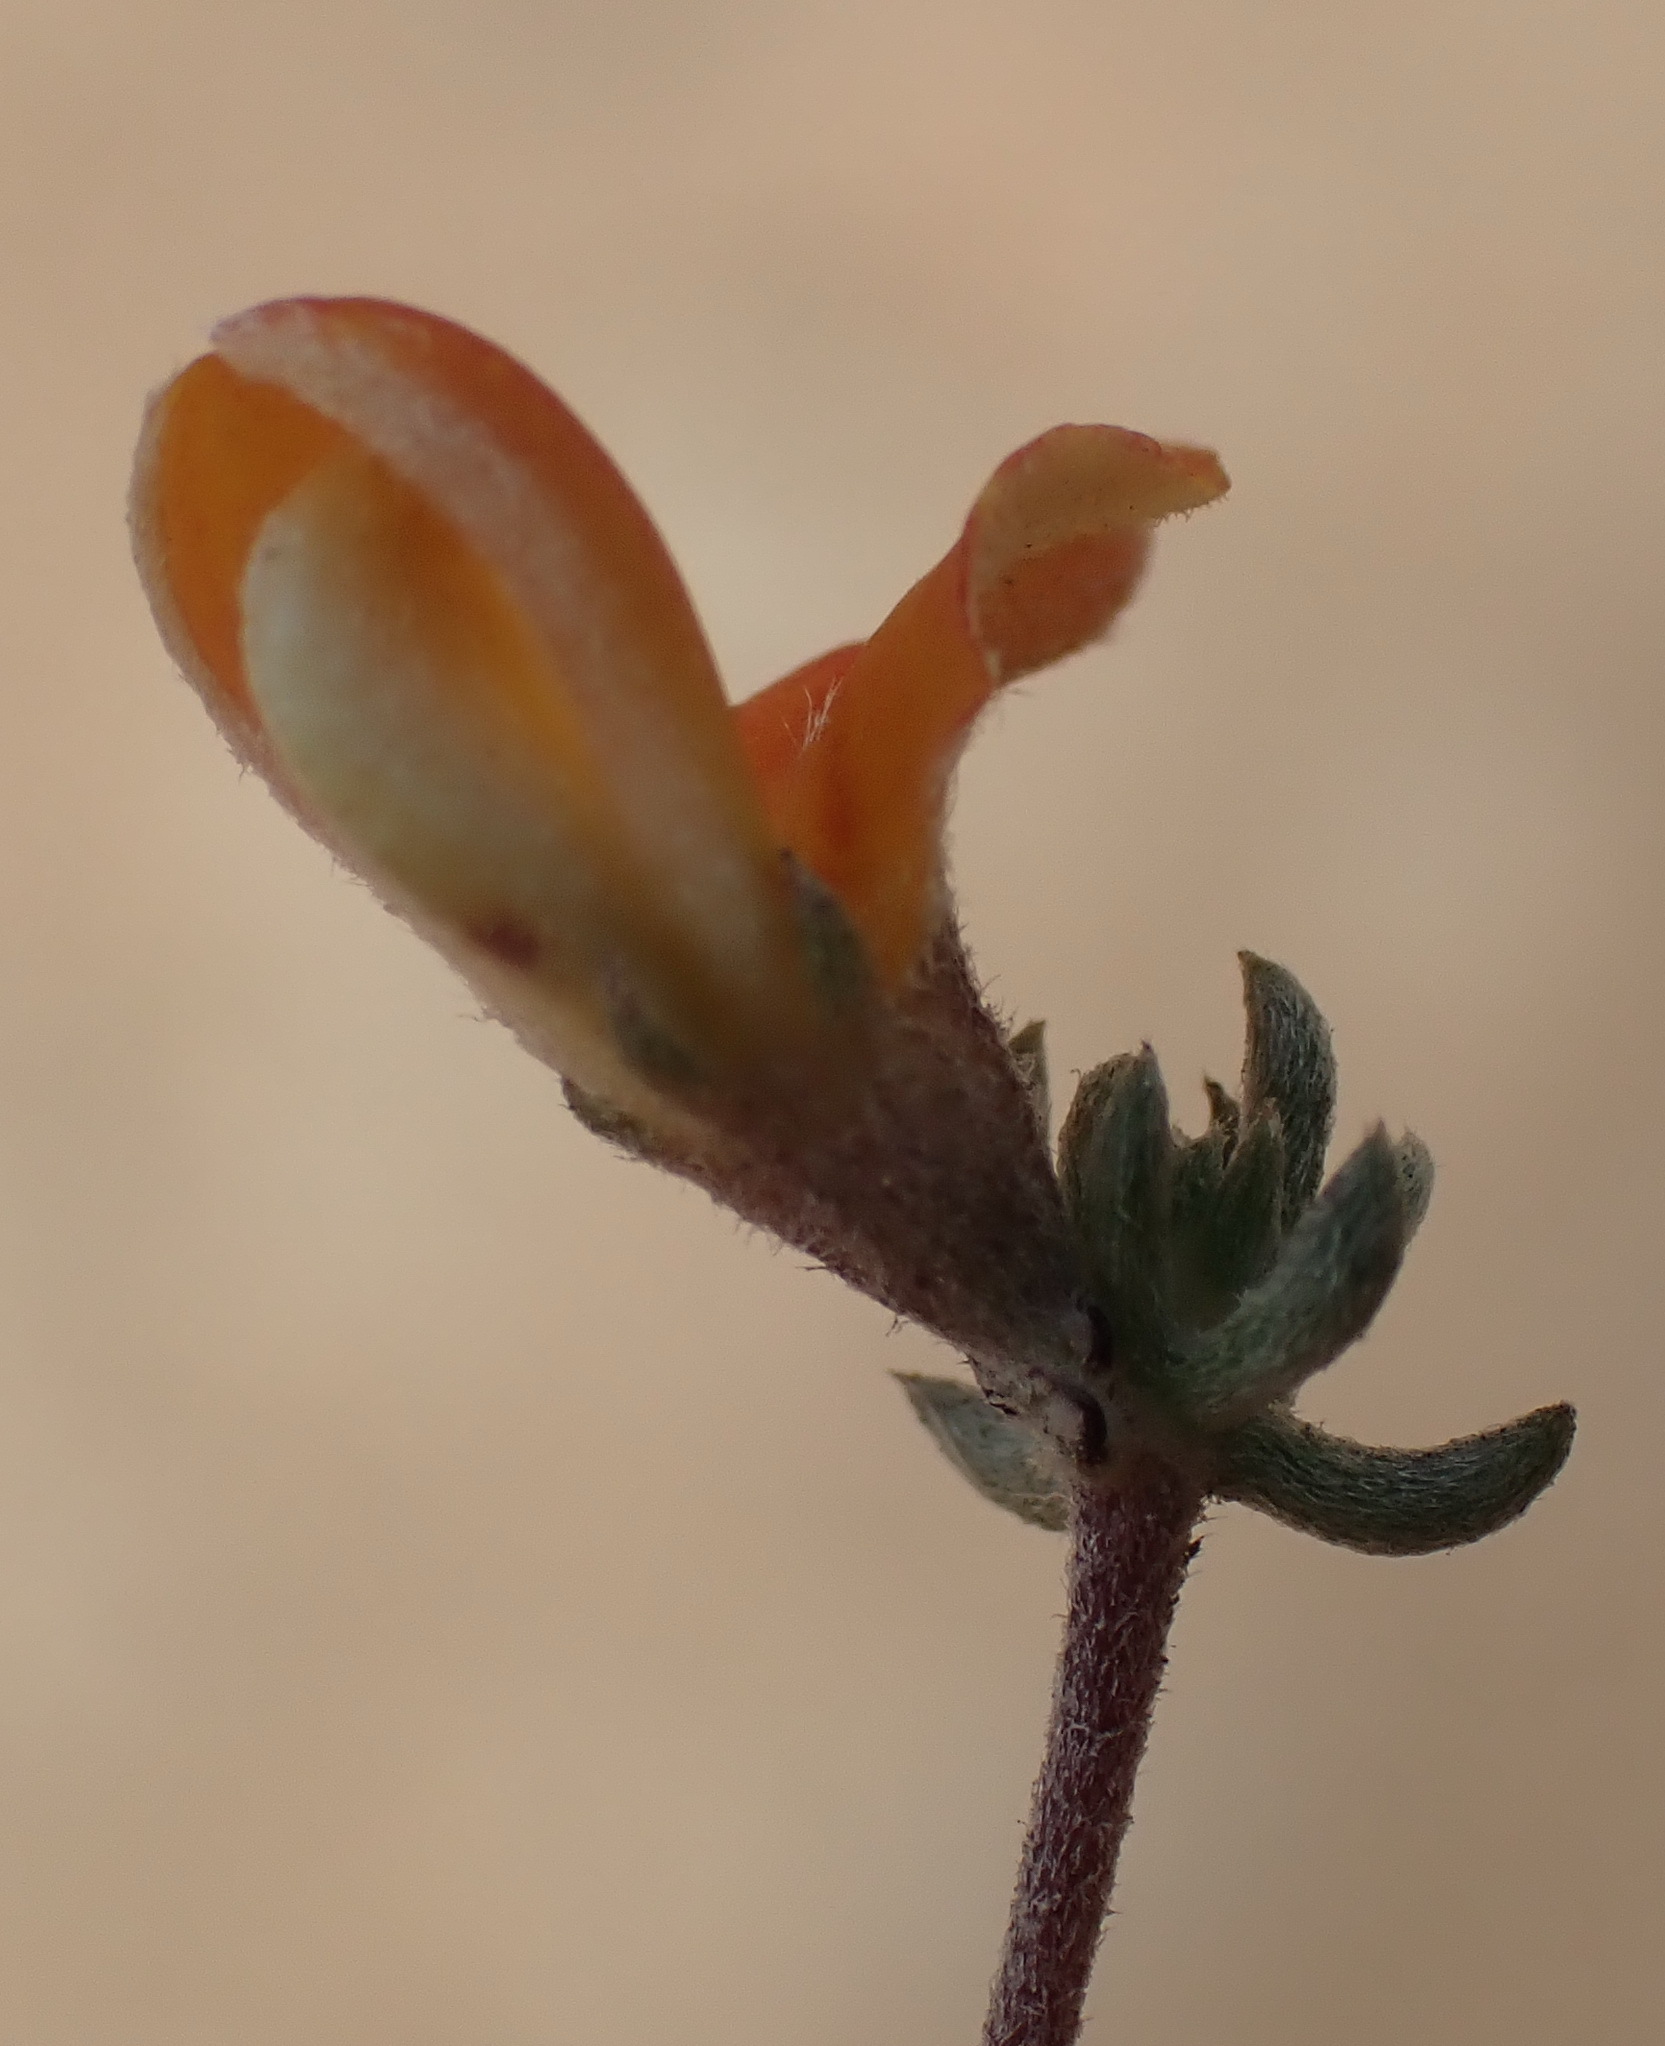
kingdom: Plantae
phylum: Tracheophyta
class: Magnoliopsida
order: Fabales
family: Fabaceae
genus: Aspalathus
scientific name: Aspalathus rubens
